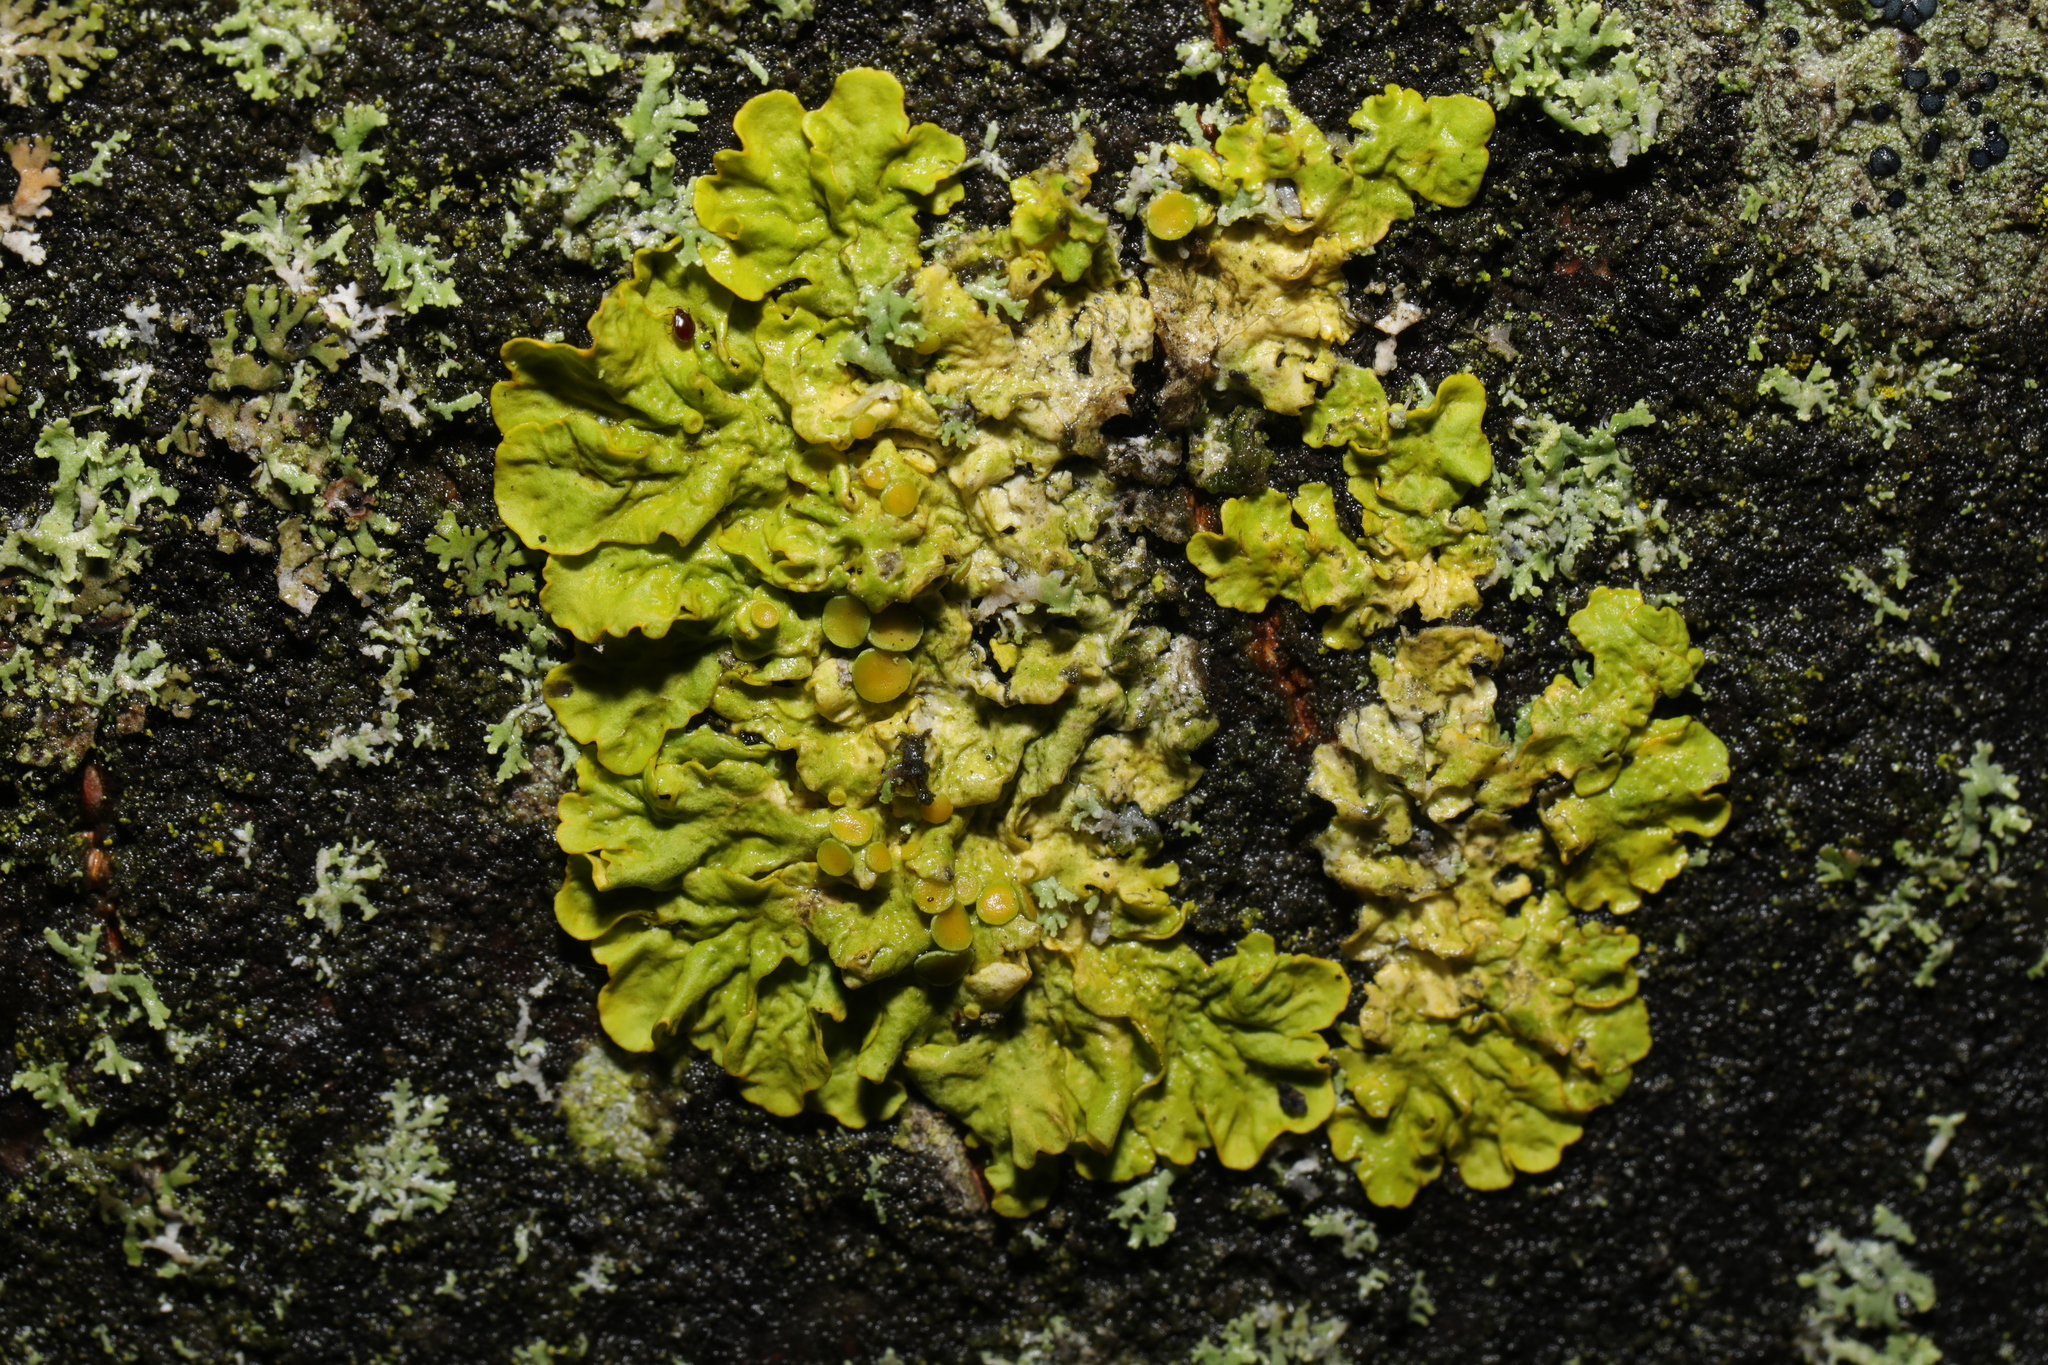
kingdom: Fungi
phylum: Ascomycota
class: Lecanoromycetes
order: Teloschistales
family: Teloschistaceae
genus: Xanthoria
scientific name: Xanthoria parietina
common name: Common orange lichen
